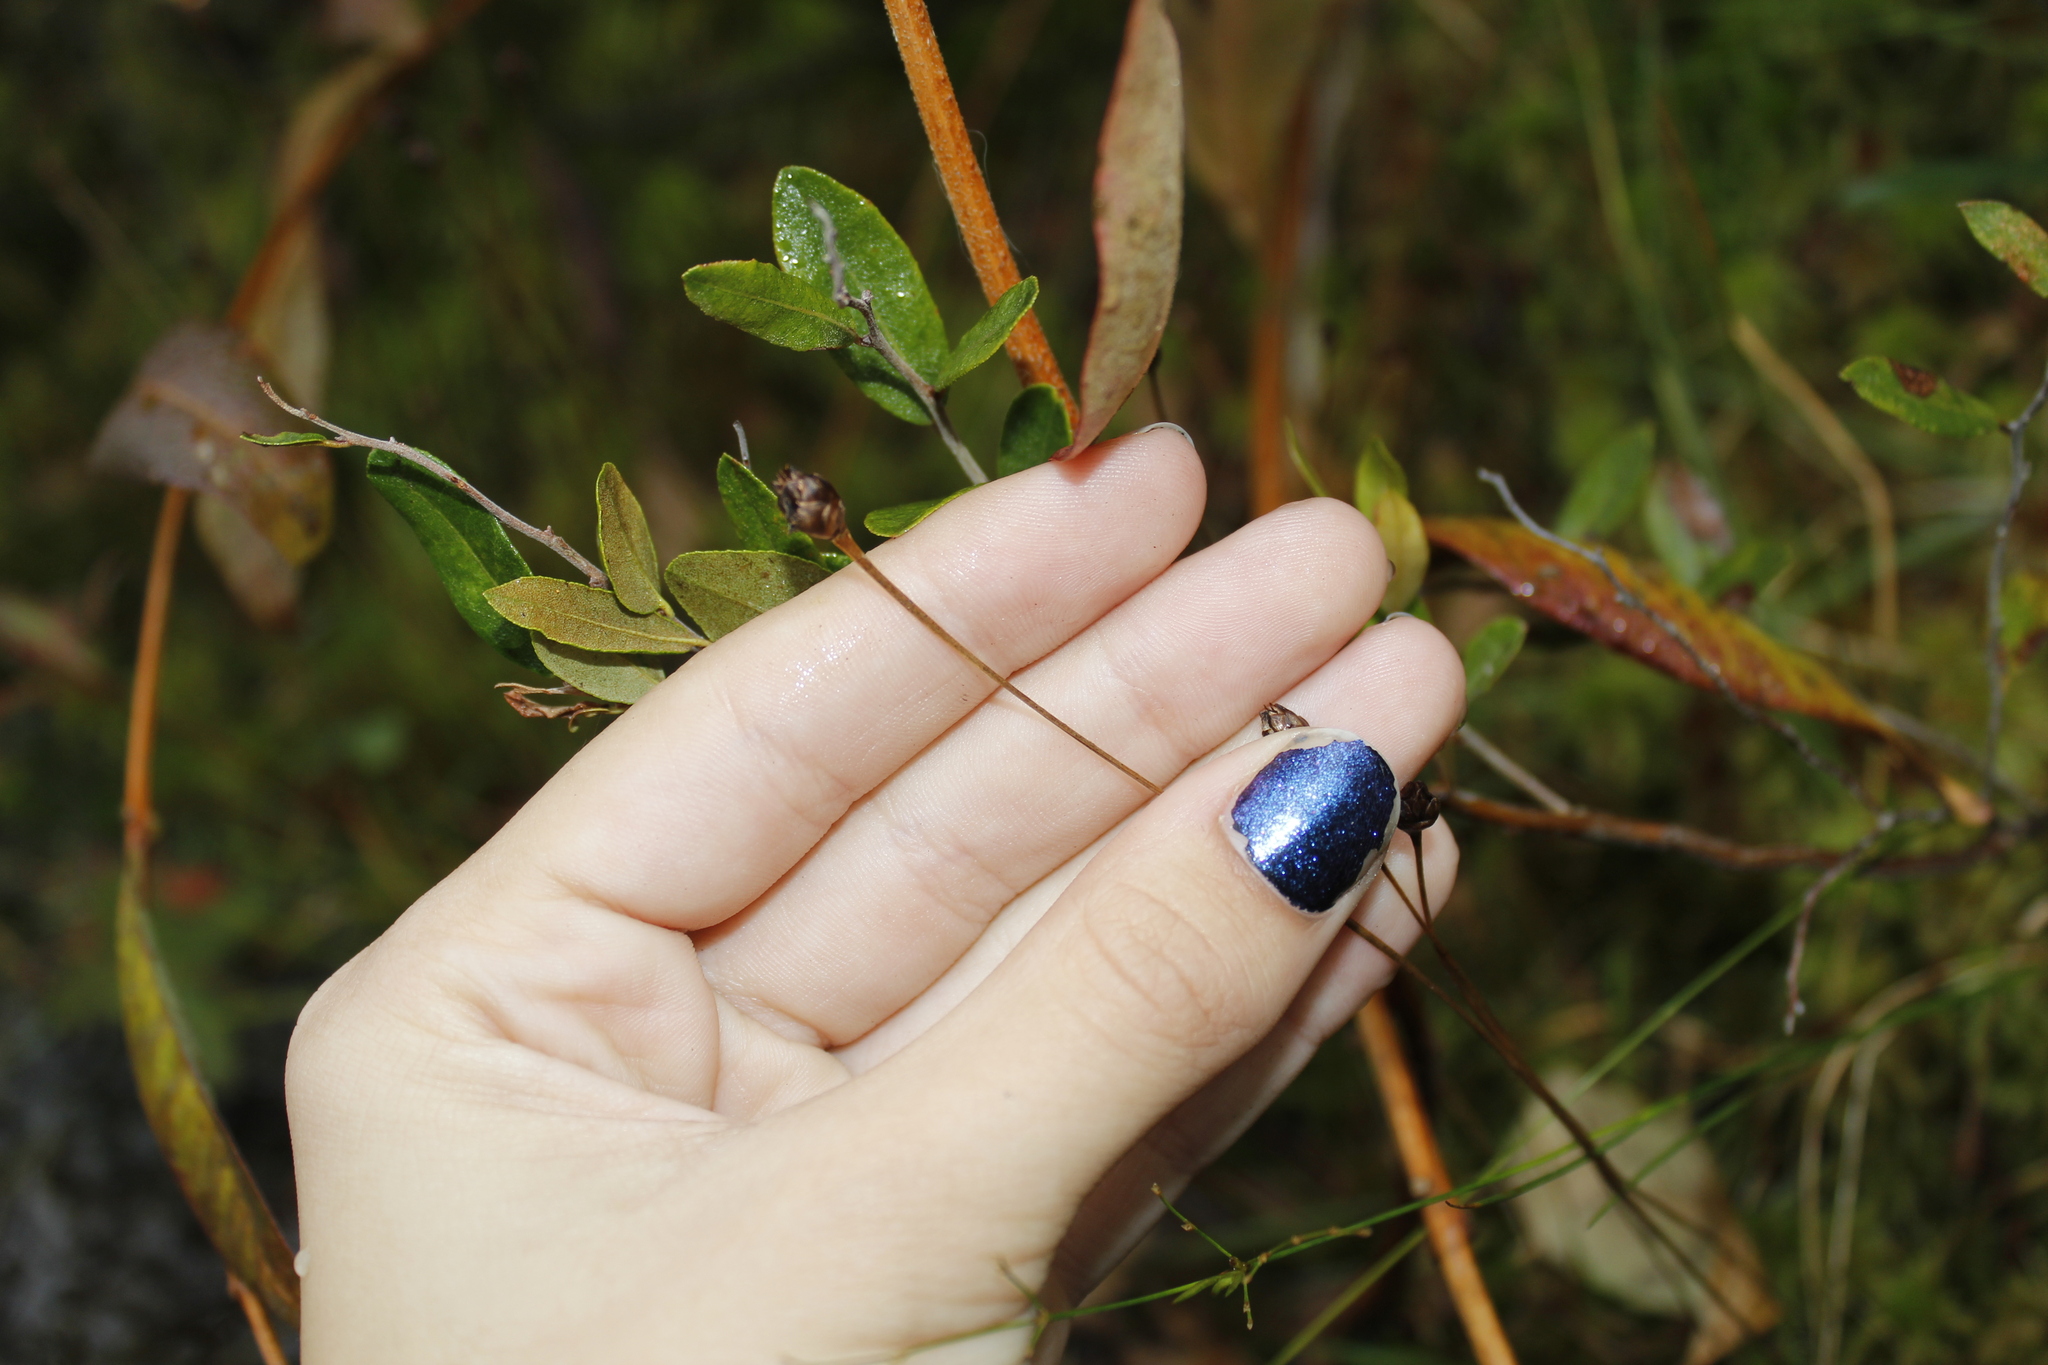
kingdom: Plantae
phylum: Tracheophyta
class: Liliopsida
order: Poales
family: Xyridaceae
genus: Xyris
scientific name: Xyris montana
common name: Northern yellow-eyed-grass
